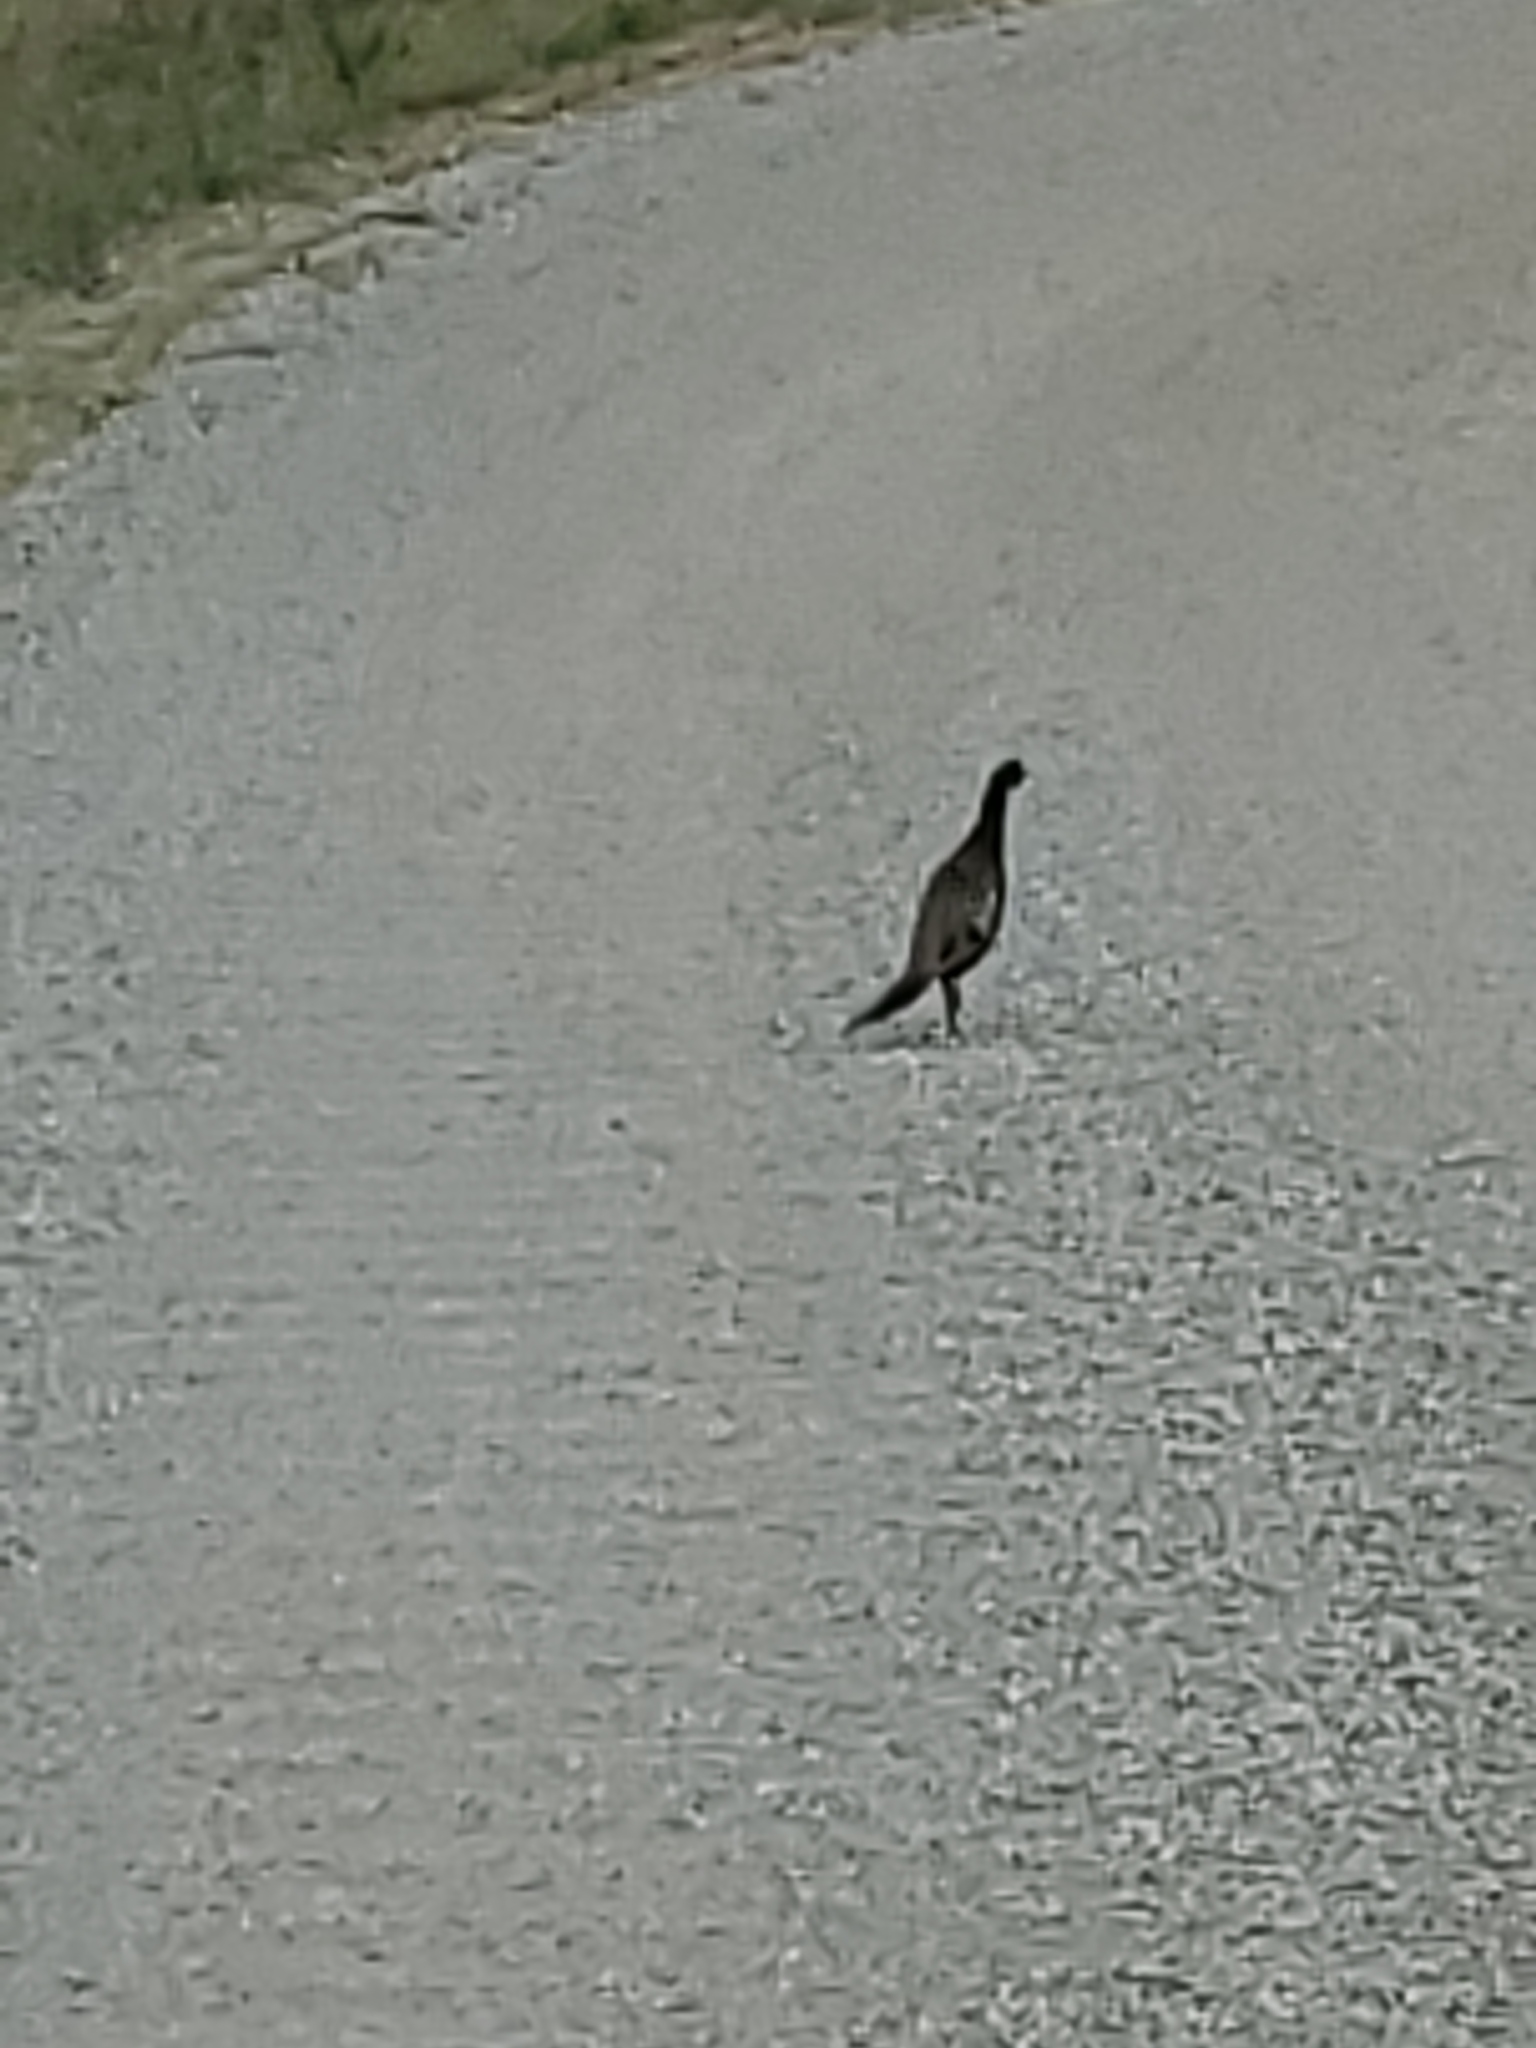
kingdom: Animalia
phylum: Chordata
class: Aves
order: Galliformes
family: Phasianidae
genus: Phasianus
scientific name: Phasianus colchicus
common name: Common pheasant
